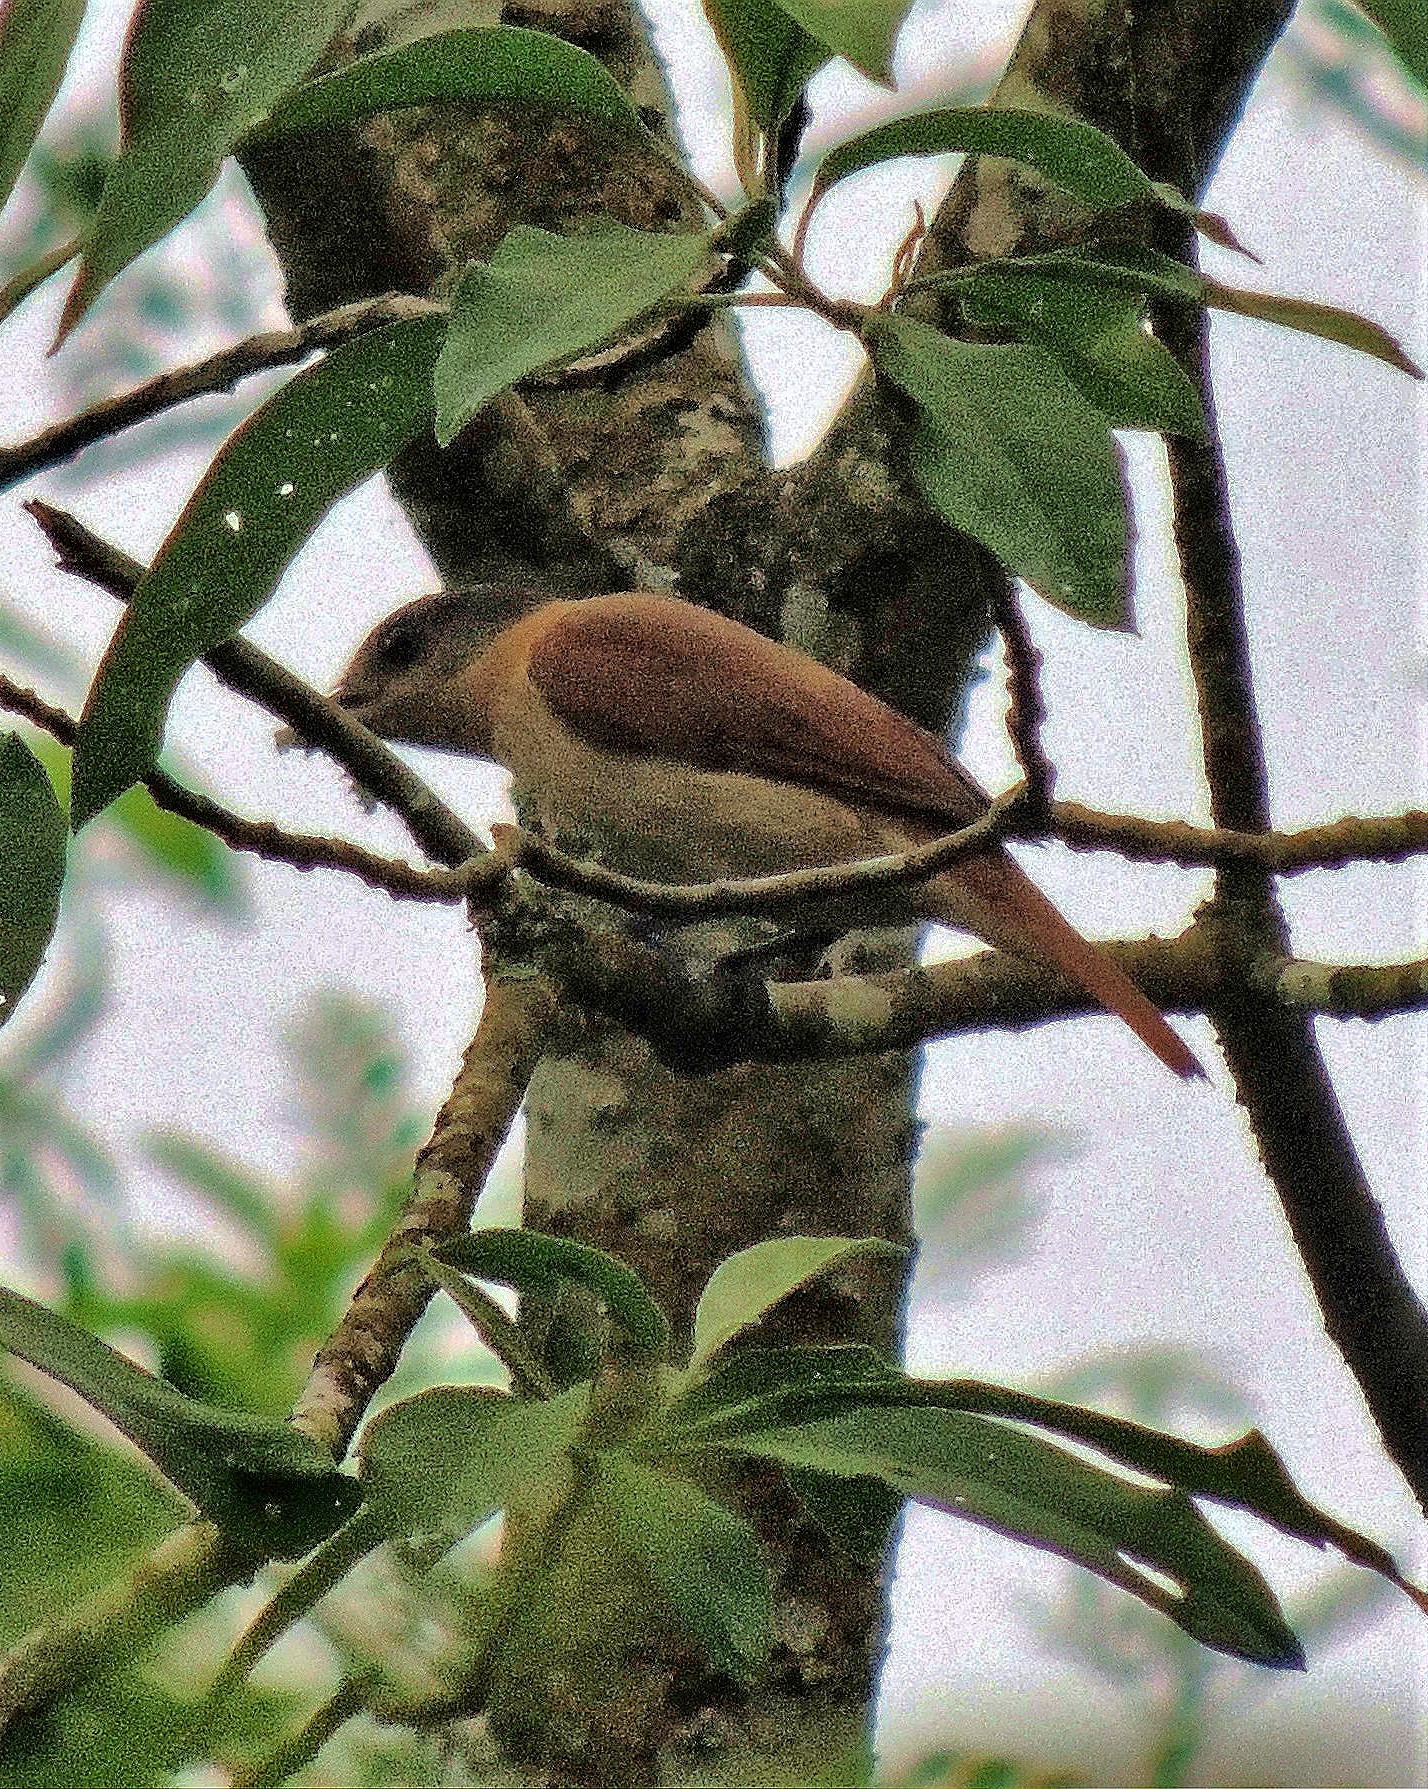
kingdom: Animalia
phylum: Chordata
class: Aves
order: Passeriformes
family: Cotingidae
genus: Pachyramphus
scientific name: Pachyramphus validus
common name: Crested becard
